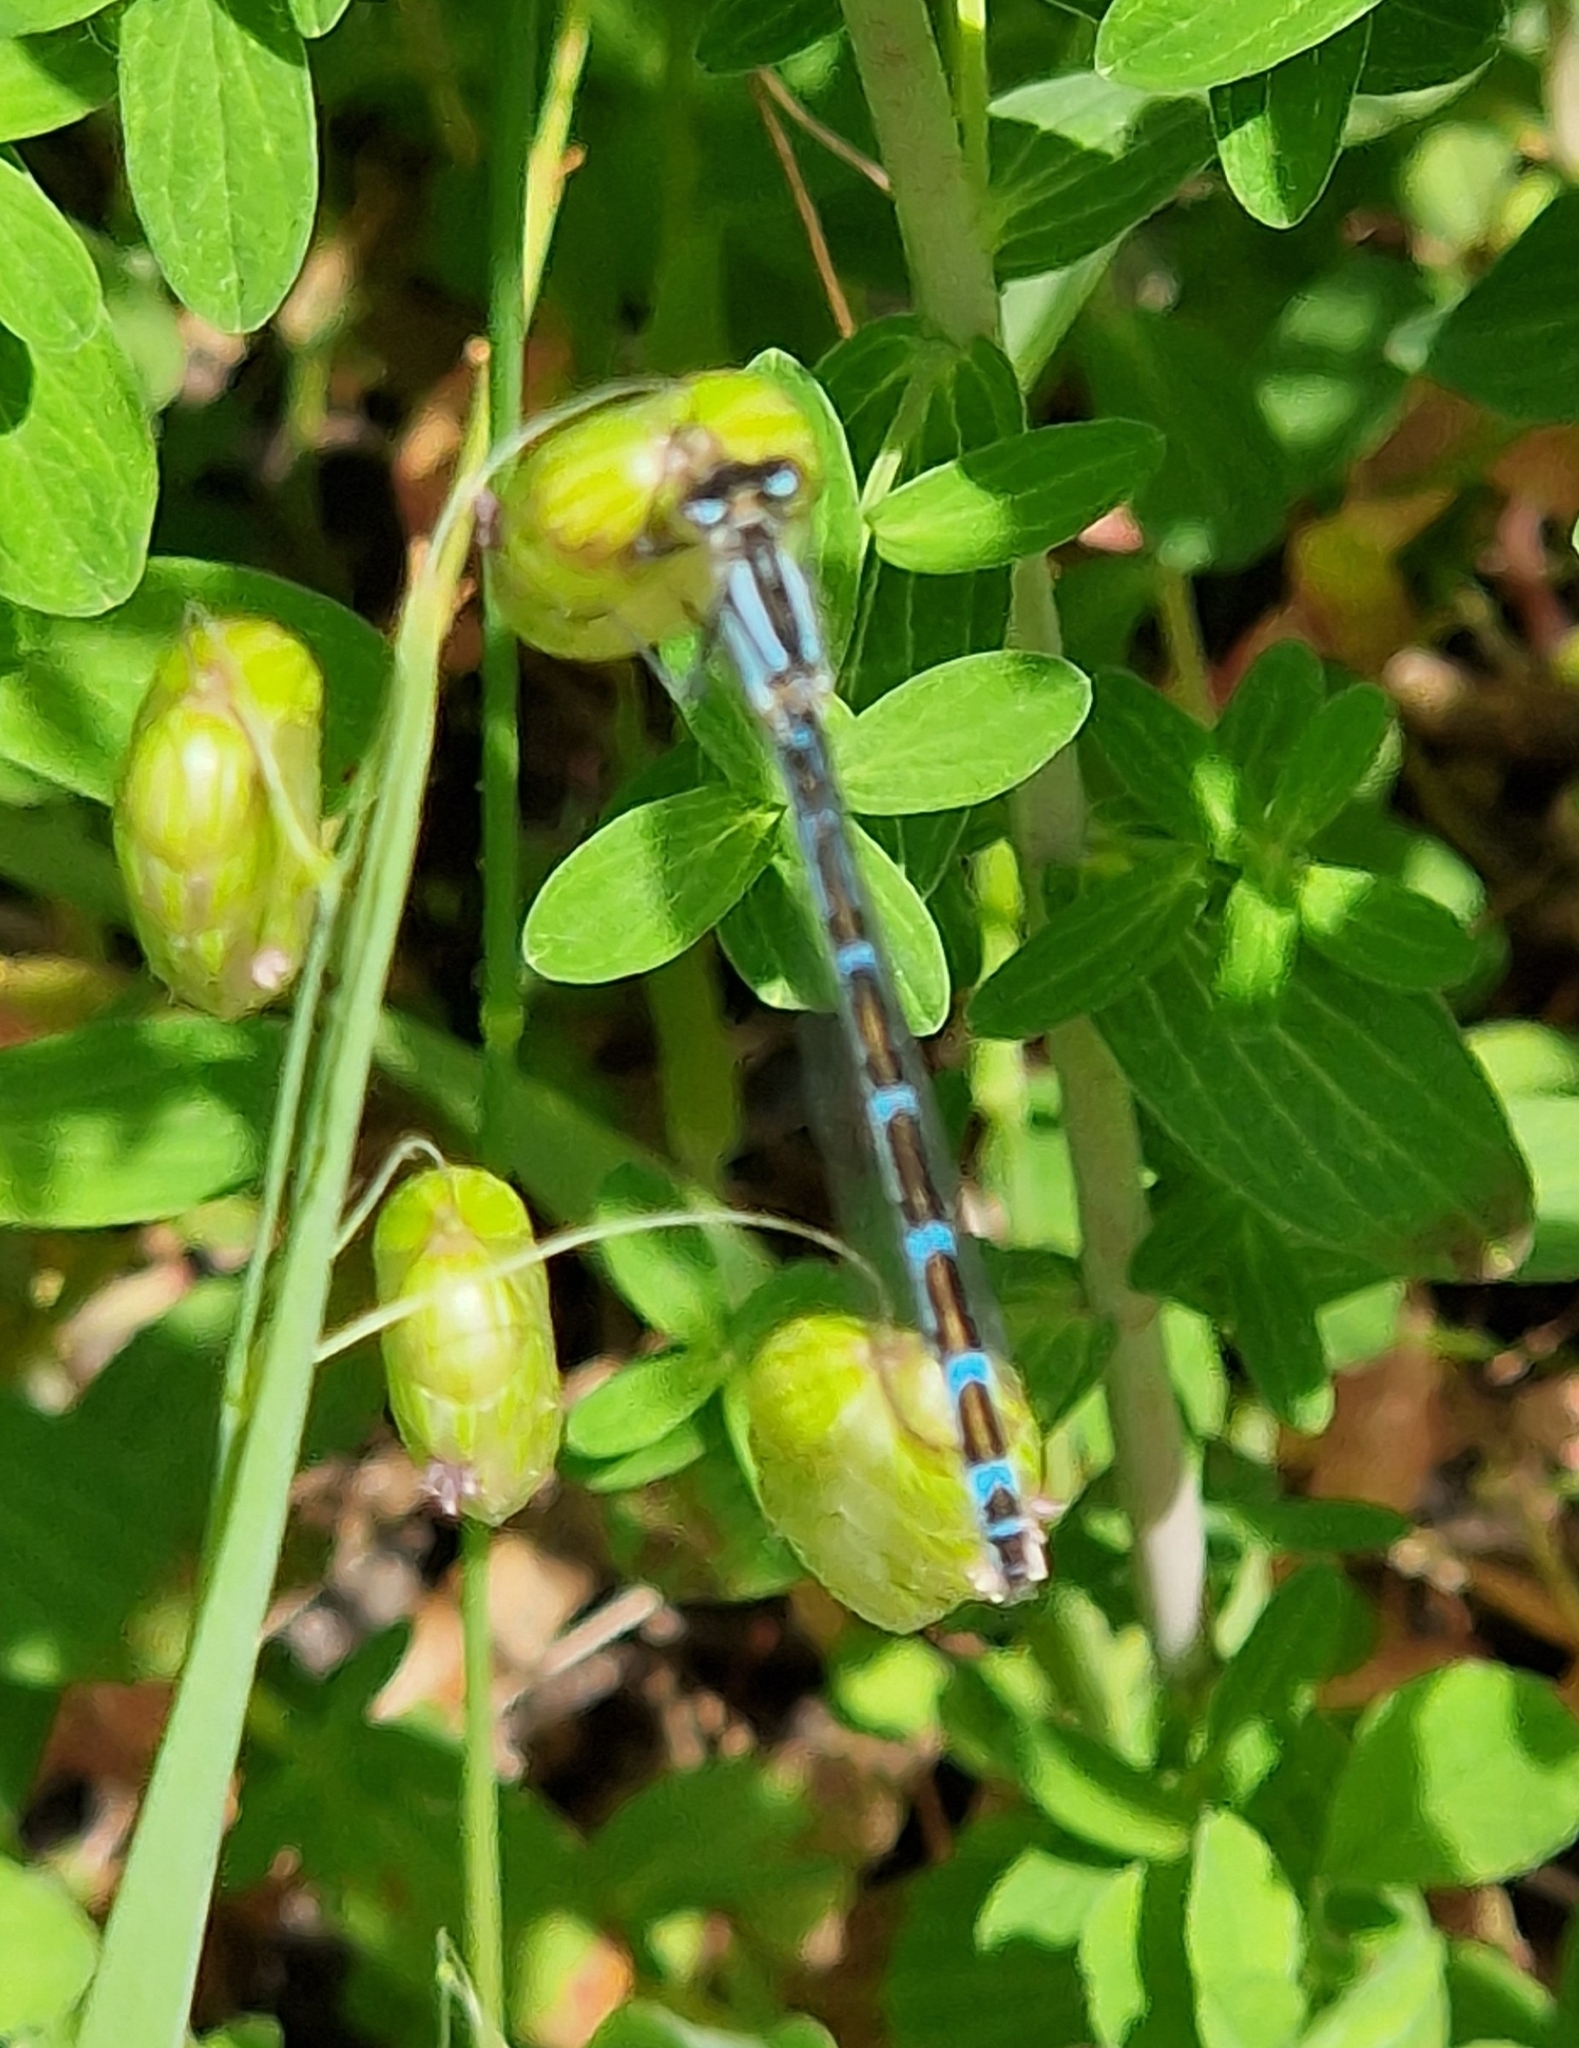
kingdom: Animalia
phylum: Arthropoda
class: Insecta
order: Odonata
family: Coenagrionidae
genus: Enallagma
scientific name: Enallagma cyathigerum
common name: Common blue damselfly
